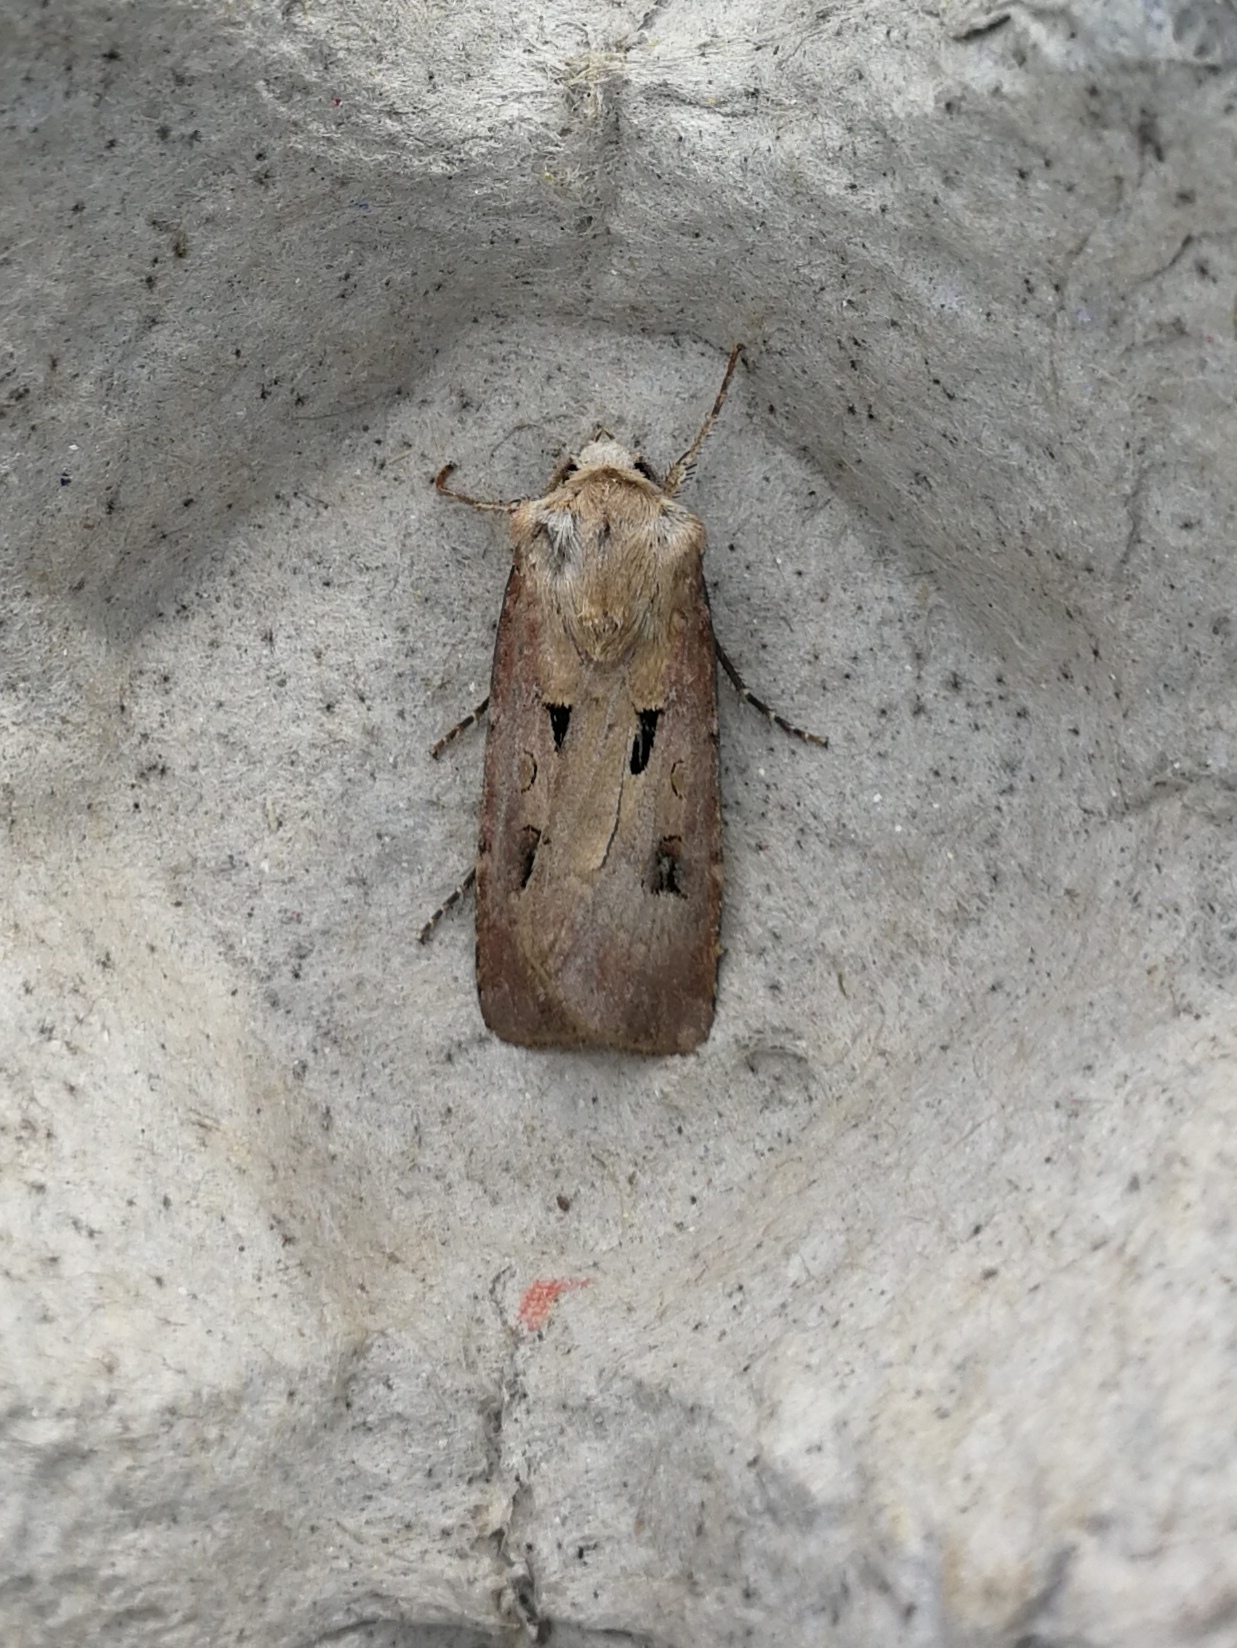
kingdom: Animalia
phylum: Arthropoda
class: Insecta
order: Lepidoptera
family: Noctuidae
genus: Agrotis
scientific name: Agrotis exclamationis
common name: Heart and dart
